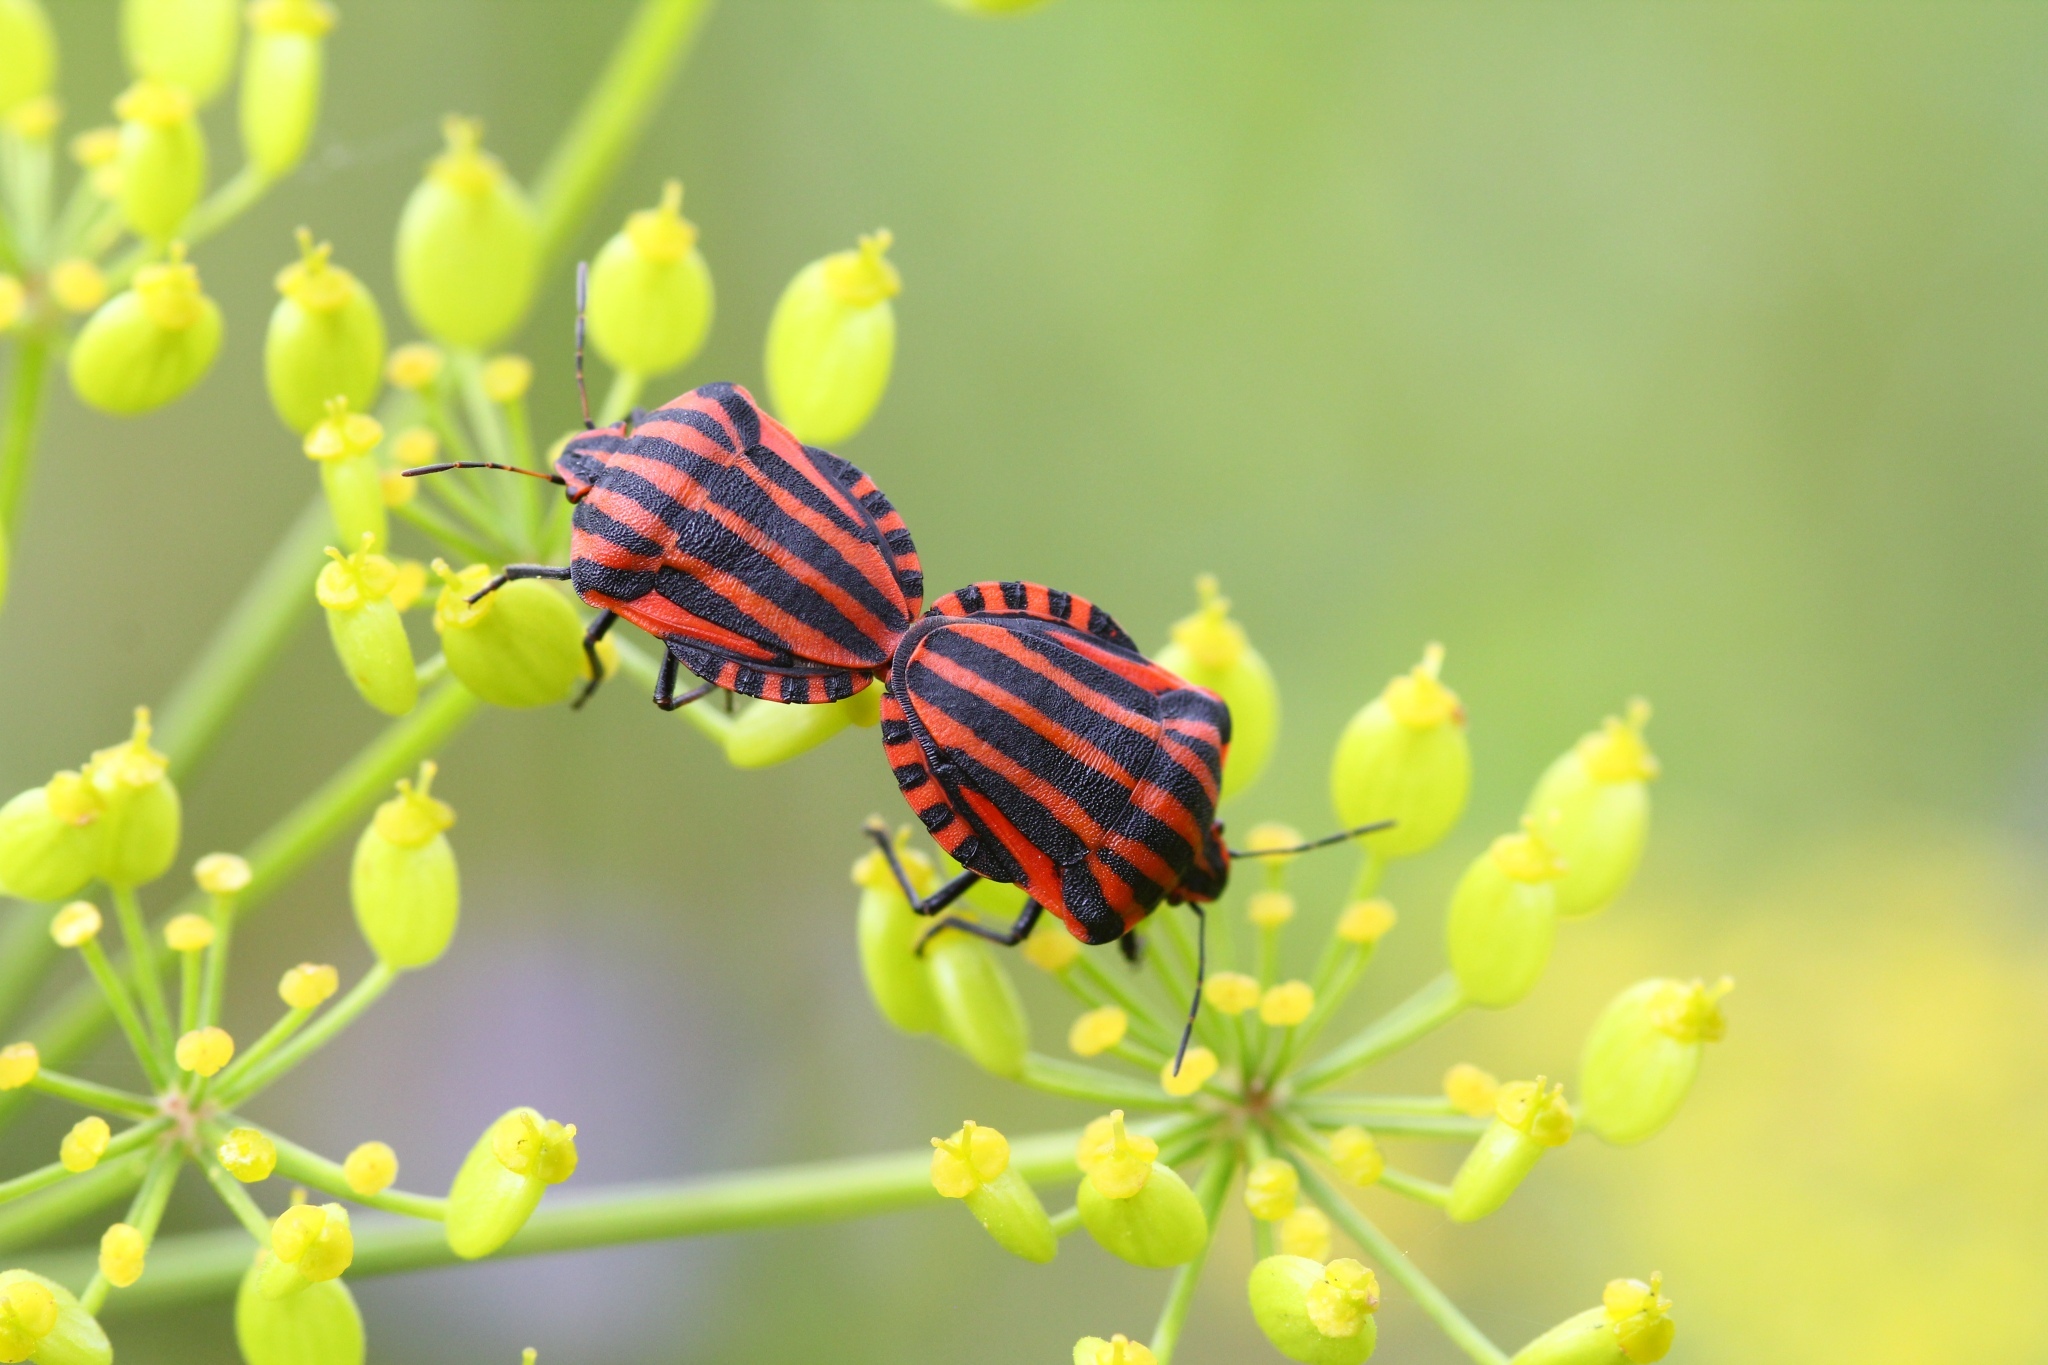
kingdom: Animalia
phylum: Arthropoda
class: Insecta
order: Hemiptera
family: Pentatomidae
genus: Graphosoma
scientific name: Graphosoma italicum
